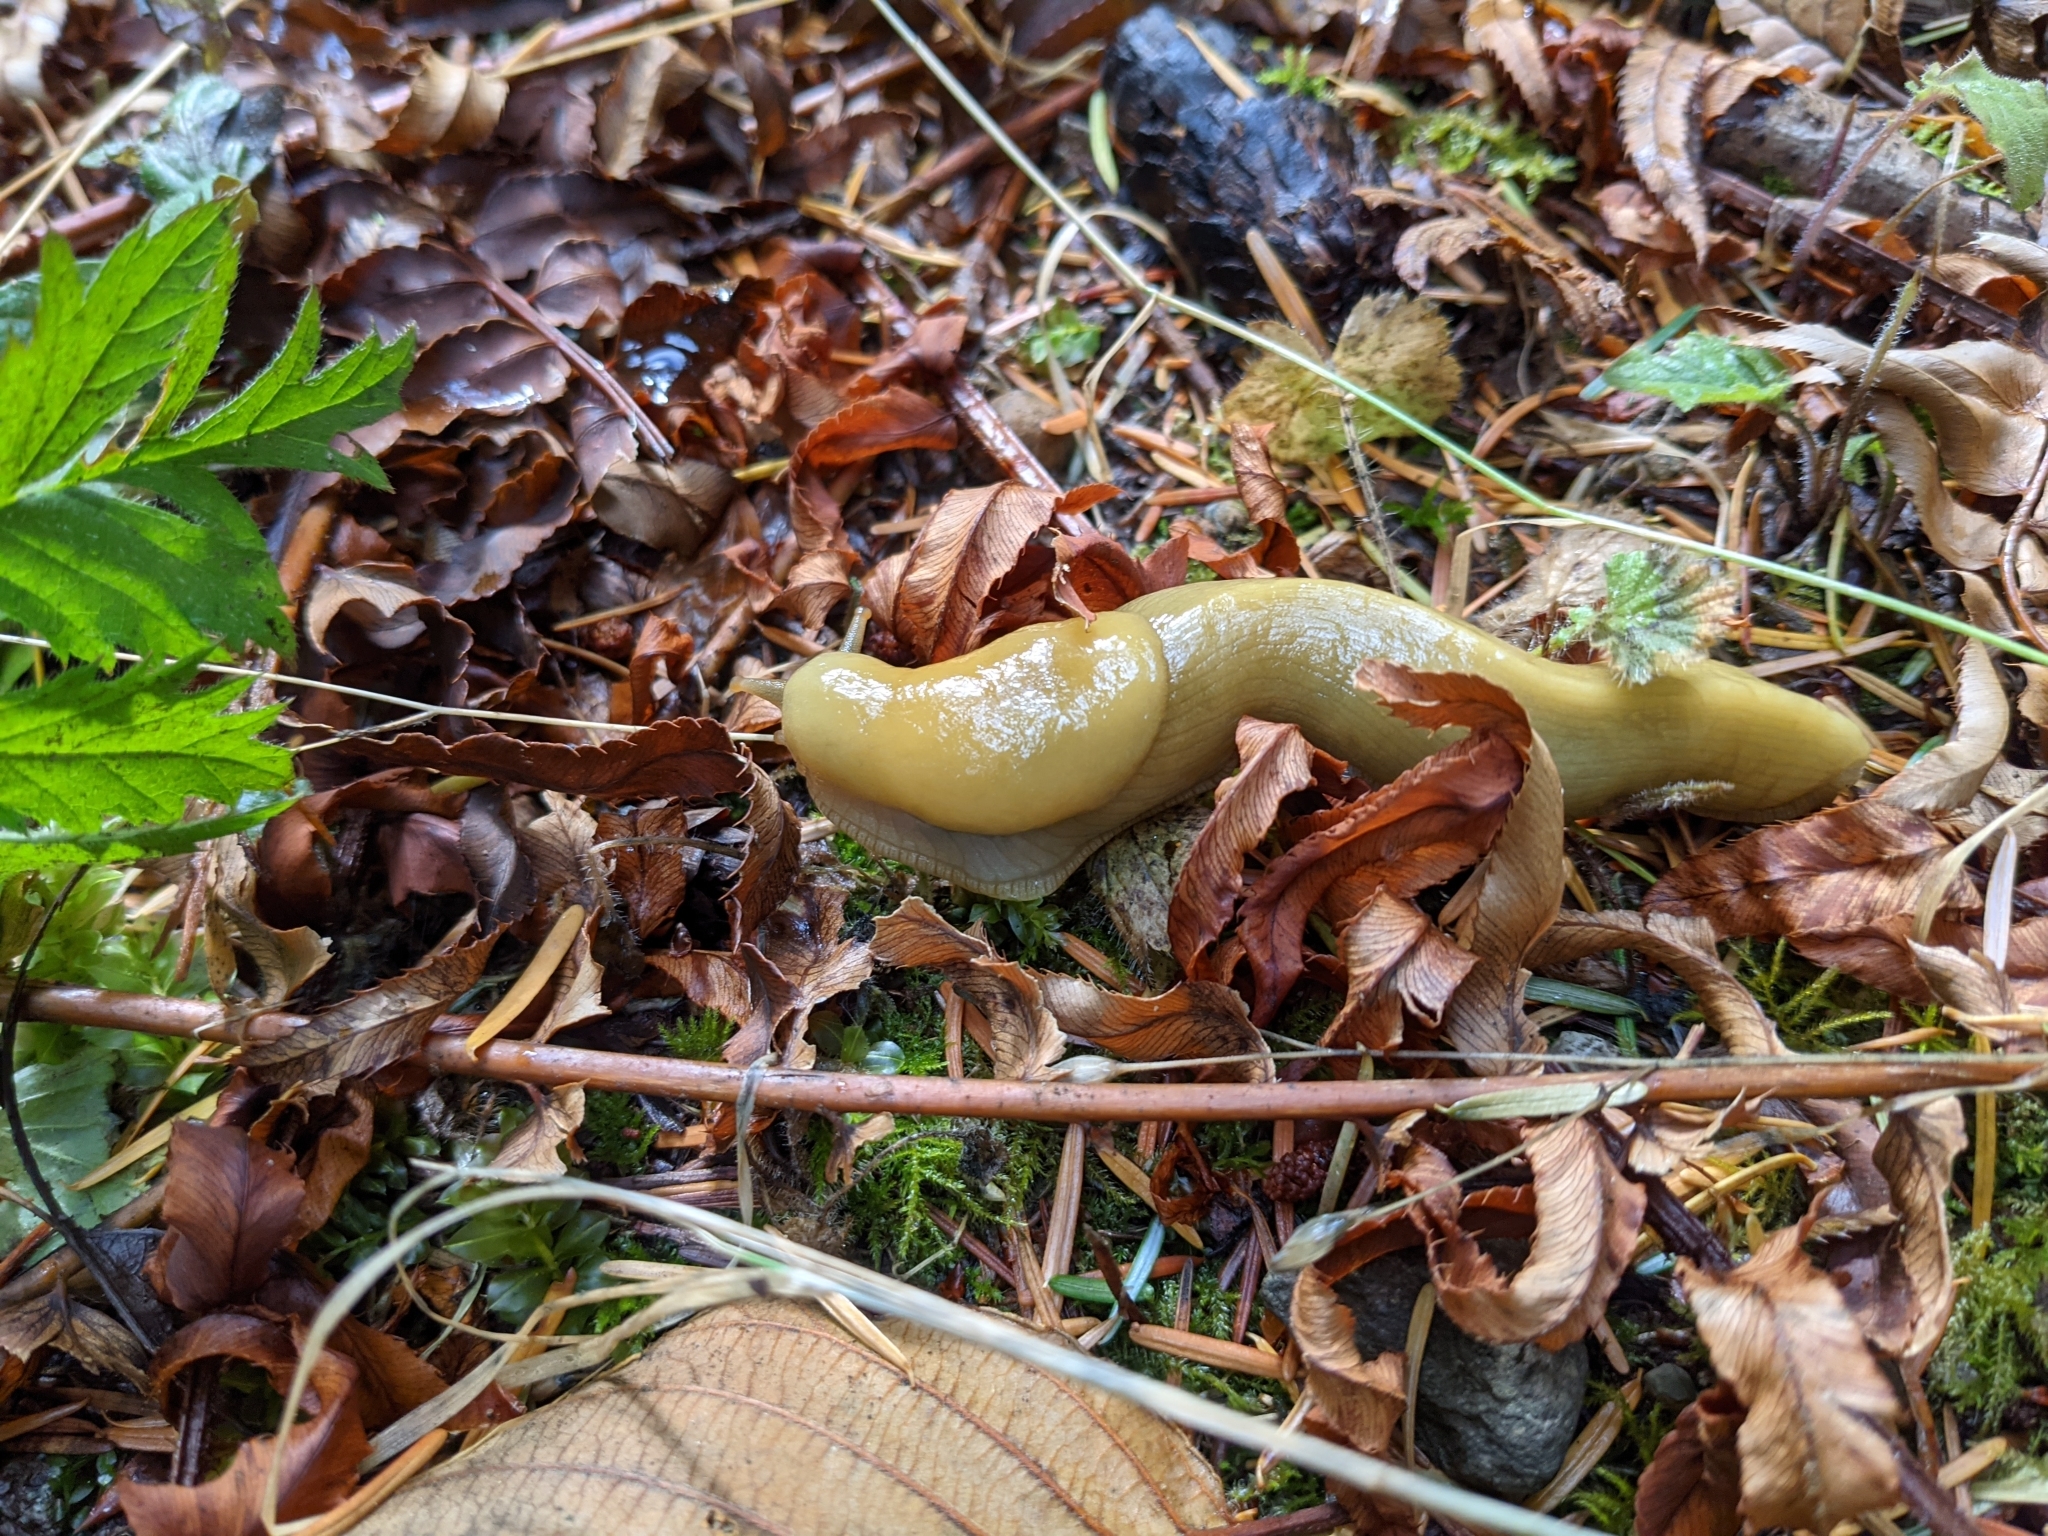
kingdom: Animalia
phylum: Mollusca
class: Gastropoda
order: Stylommatophora
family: Ariolimacidae
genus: Ariolimax
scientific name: Ariolimax columbianus
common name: Pacific banana slug
